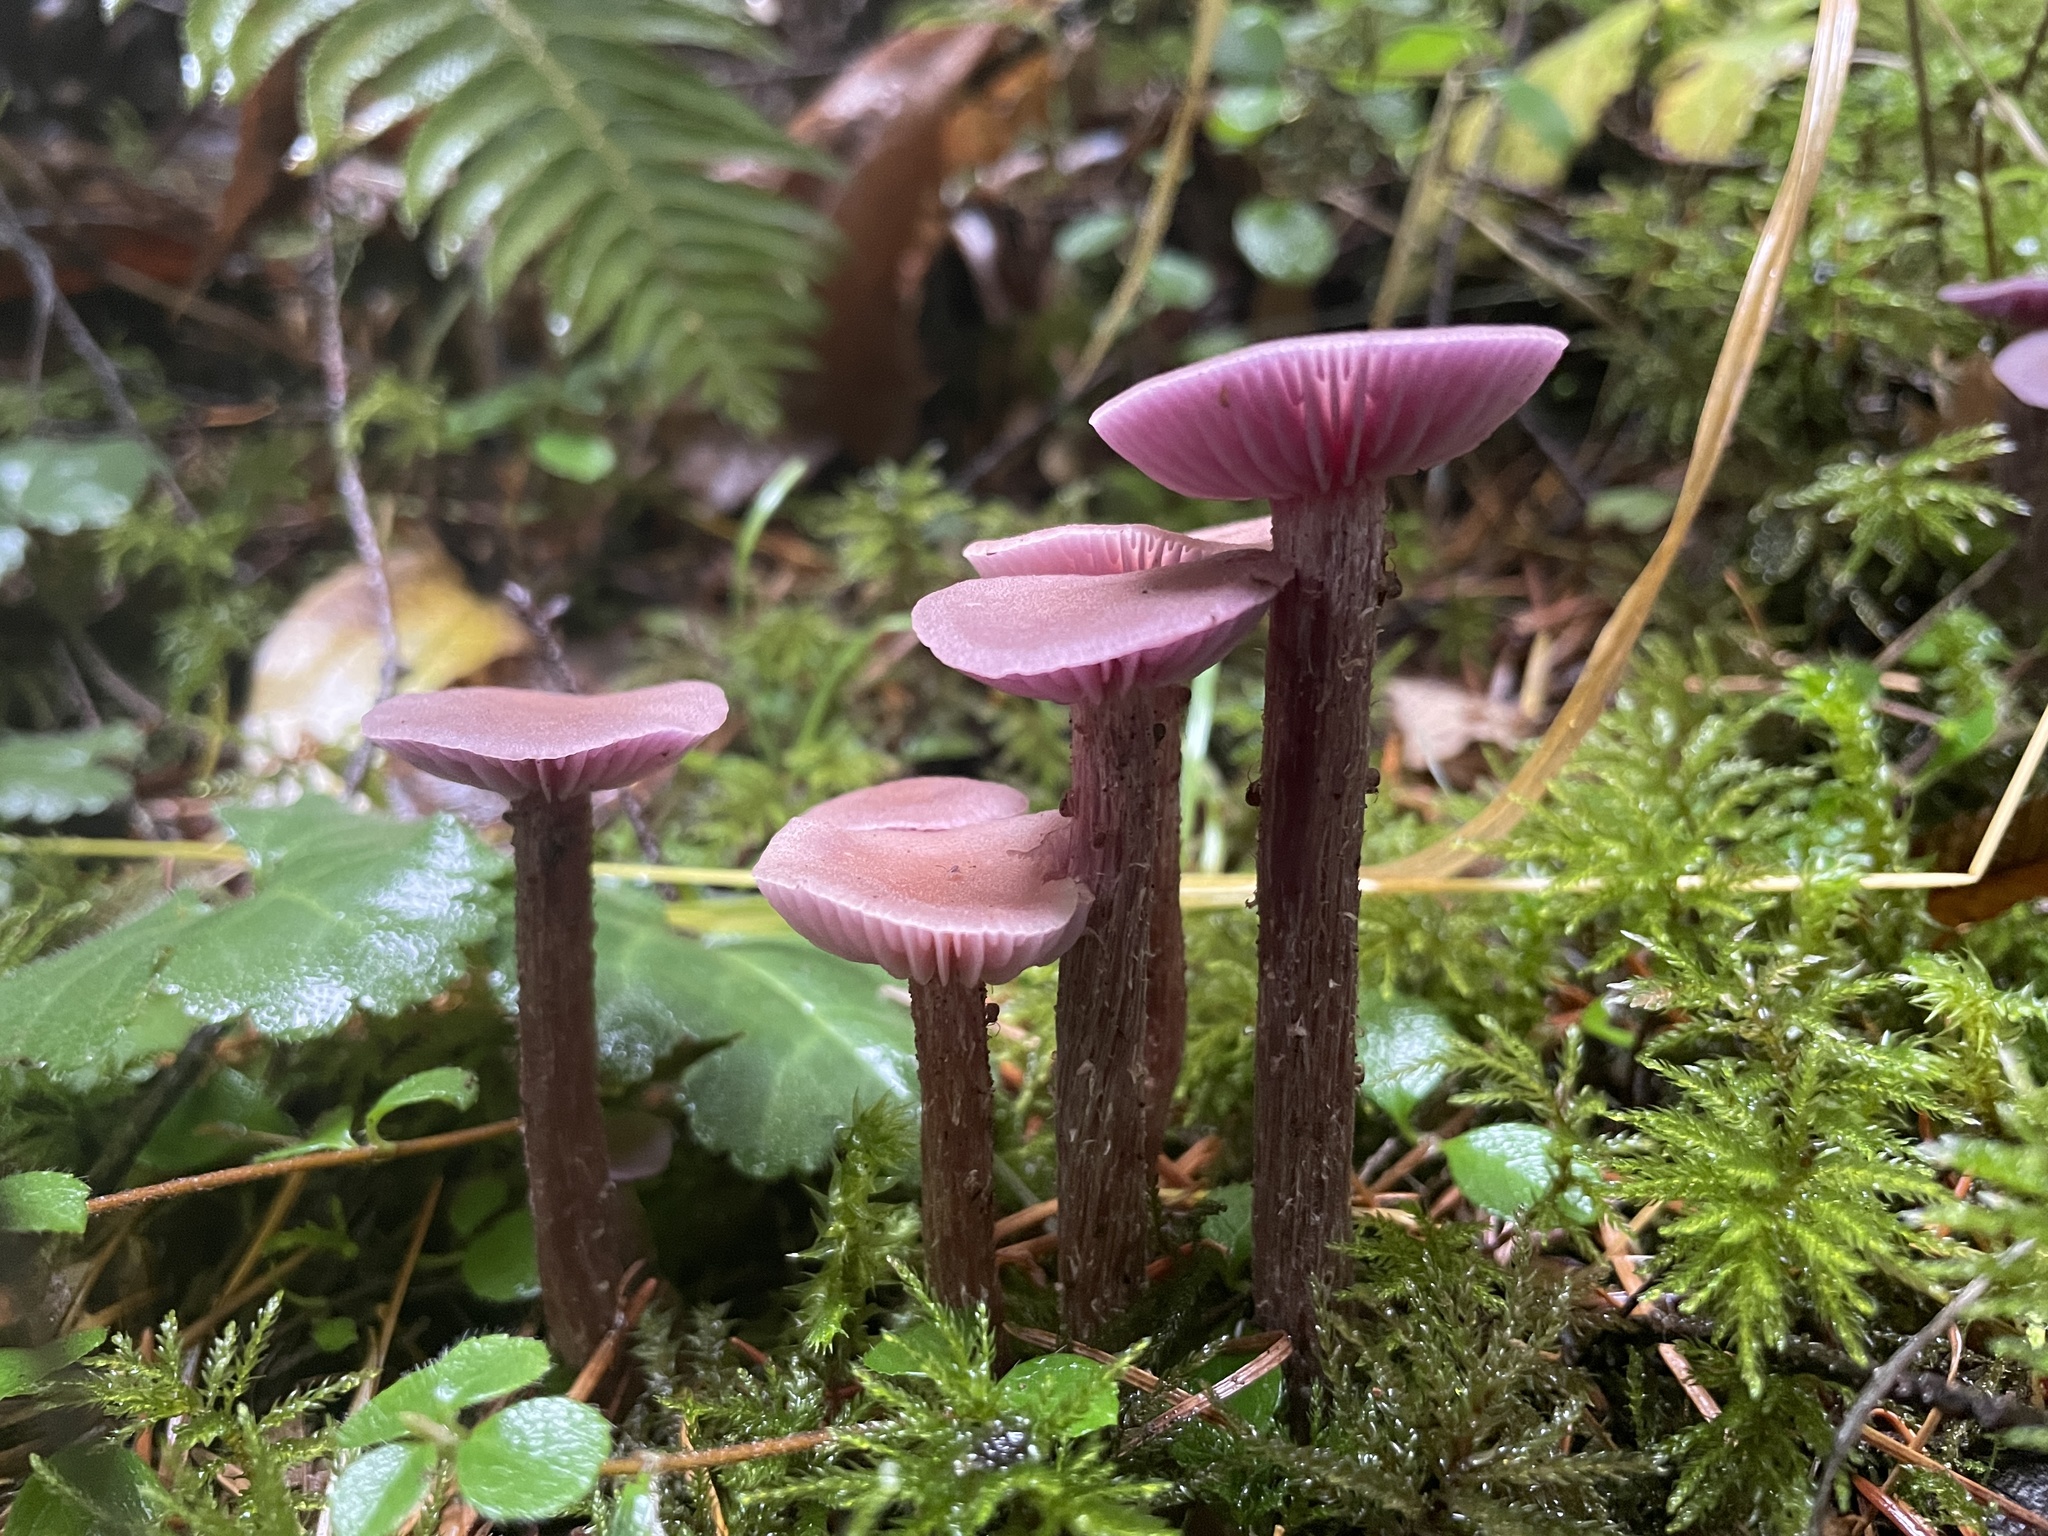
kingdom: Fungi
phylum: Basidiomycota
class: Agaricomycetes
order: Agaricales
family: Hydnangiaceae
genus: Laccaria
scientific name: Laccaria amethysteo-occidentalis
